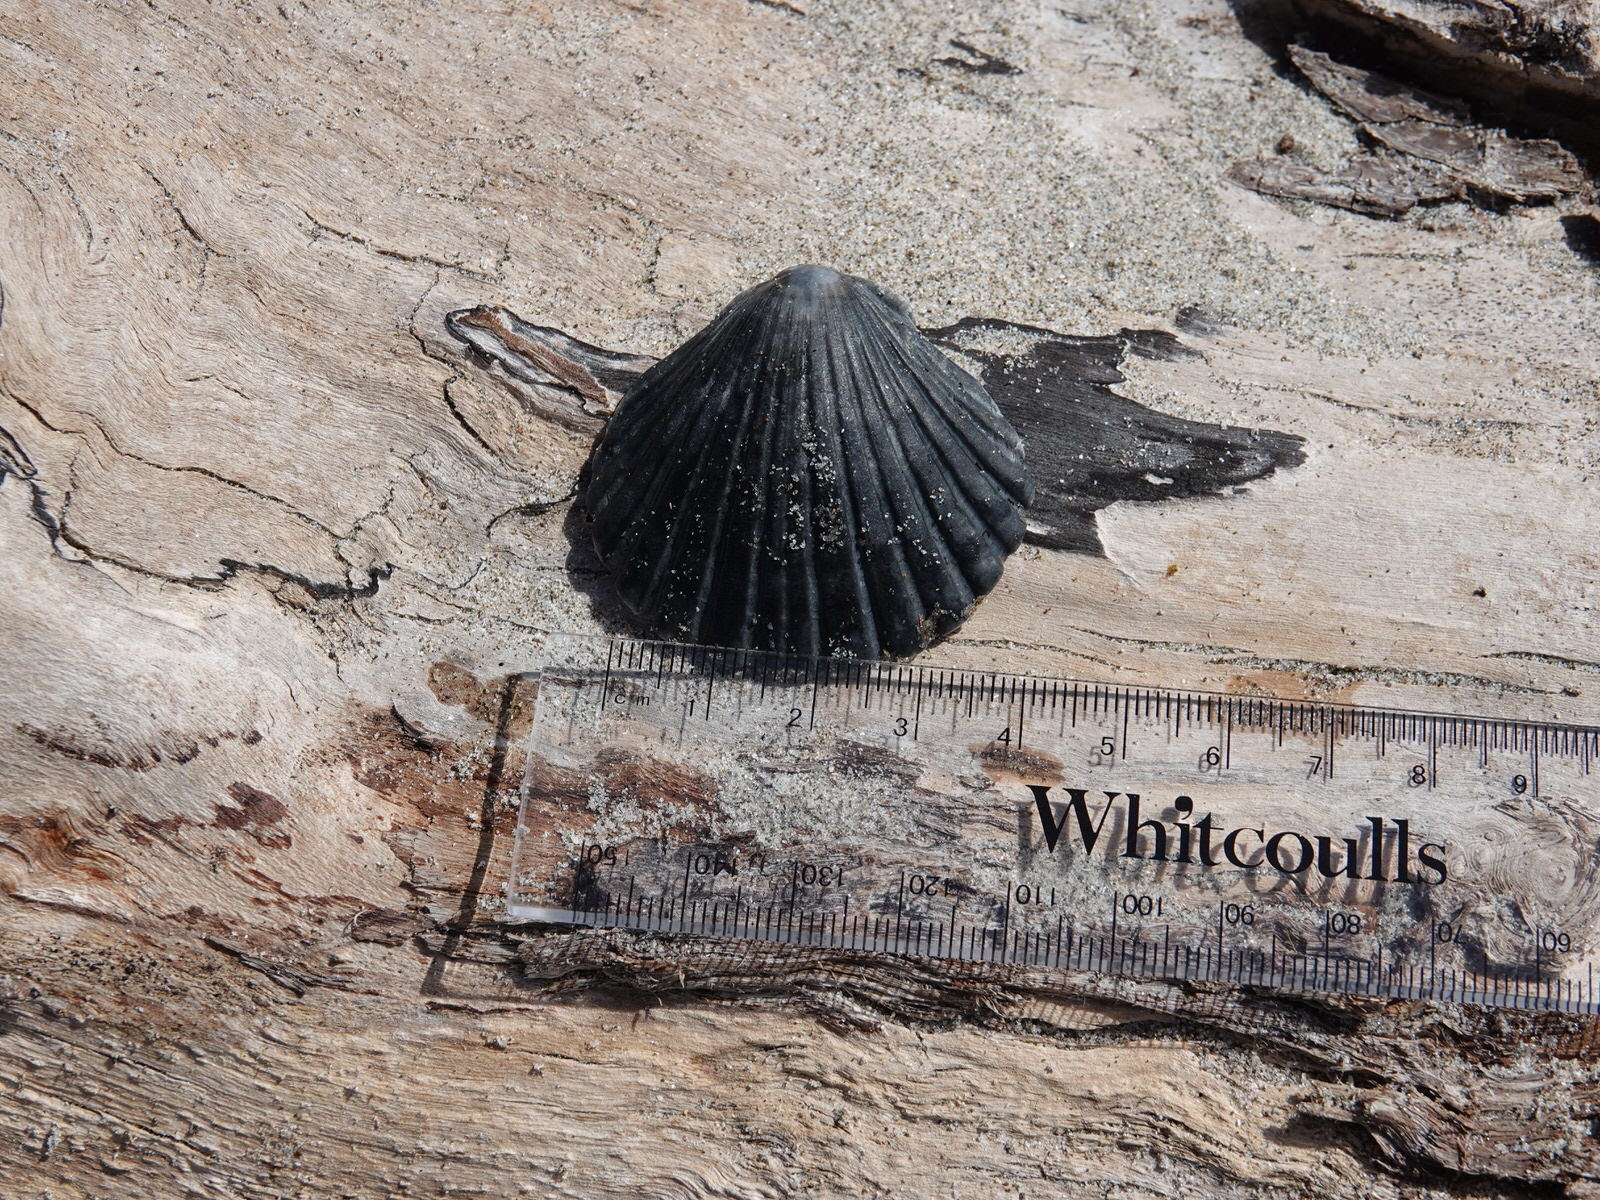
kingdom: Animalia
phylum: Mollusca
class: Bivalvia
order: Pectinida
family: Pectinidae
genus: Pecten
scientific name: Pecten novaezelandiae
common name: New zealand scallop
